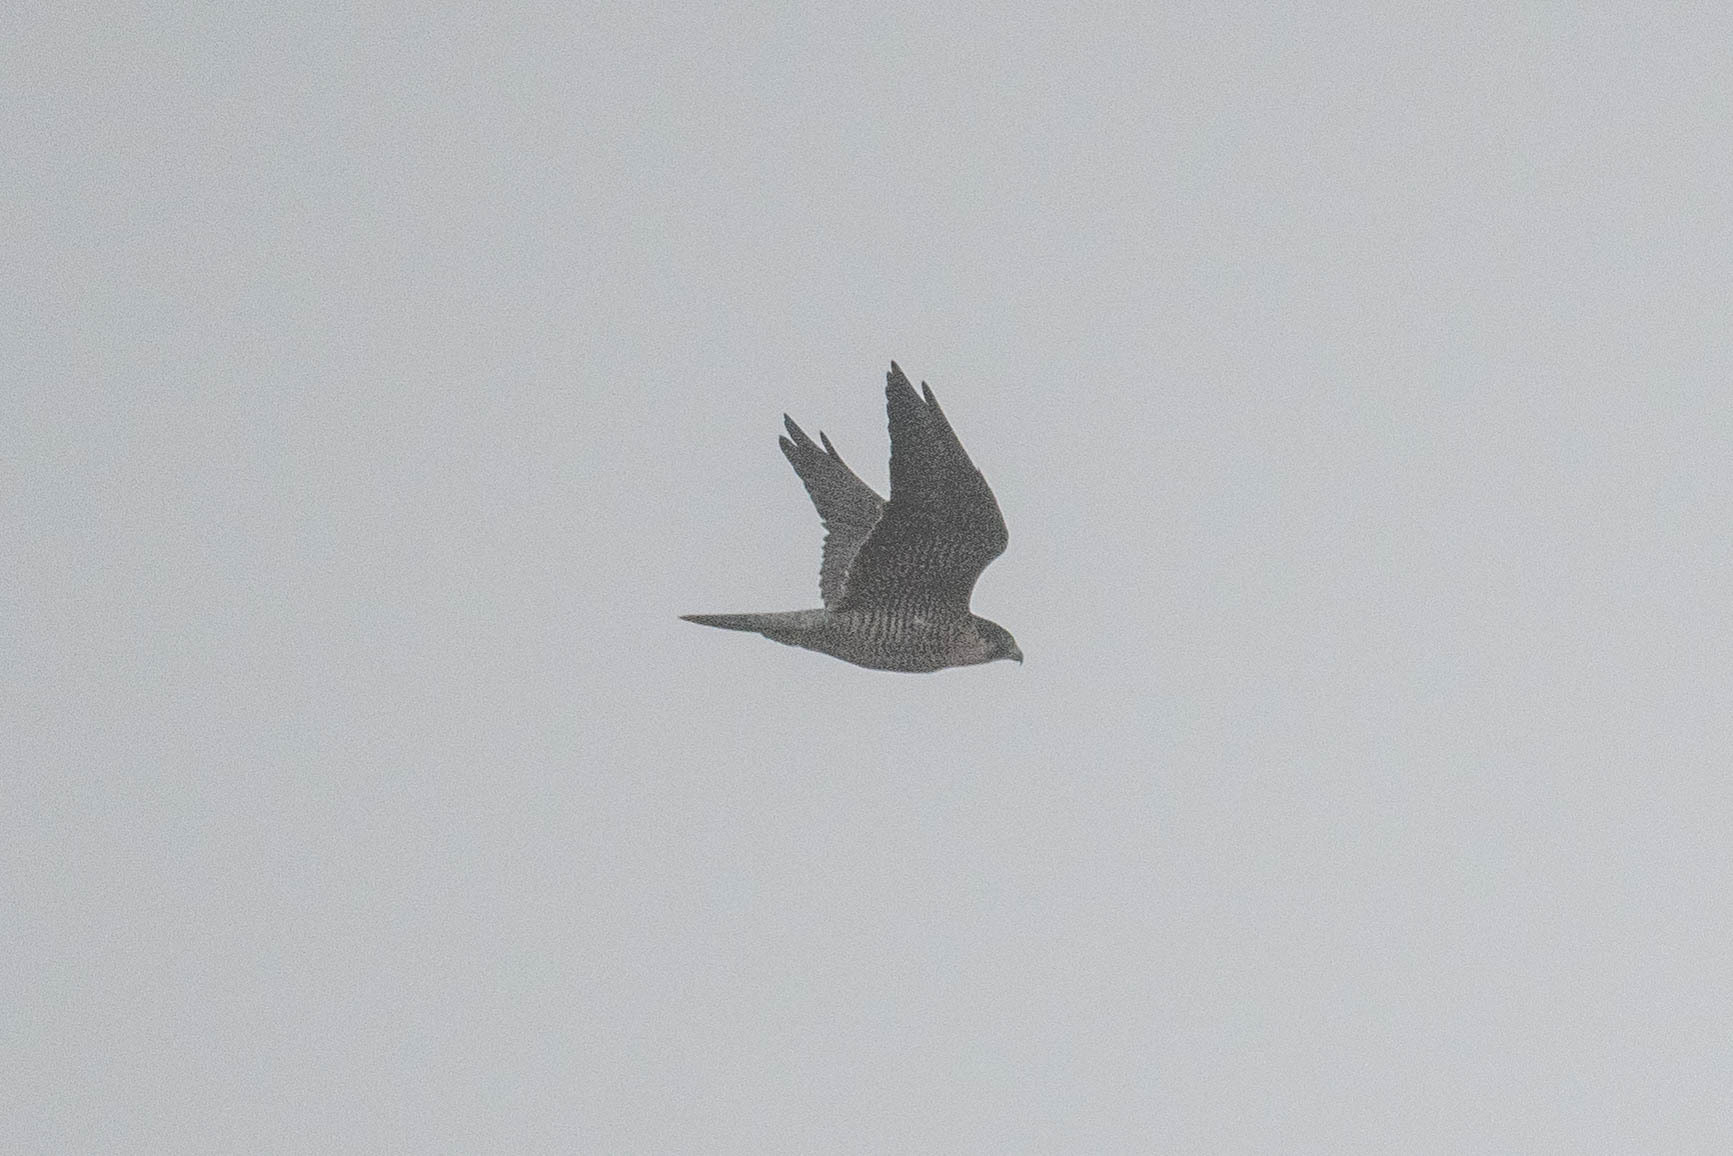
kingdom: Animalia
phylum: Chordata
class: Aves
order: Falconiformes
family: Falconidae
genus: Falco
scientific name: Falco peregrinus
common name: Peregrine falcon
